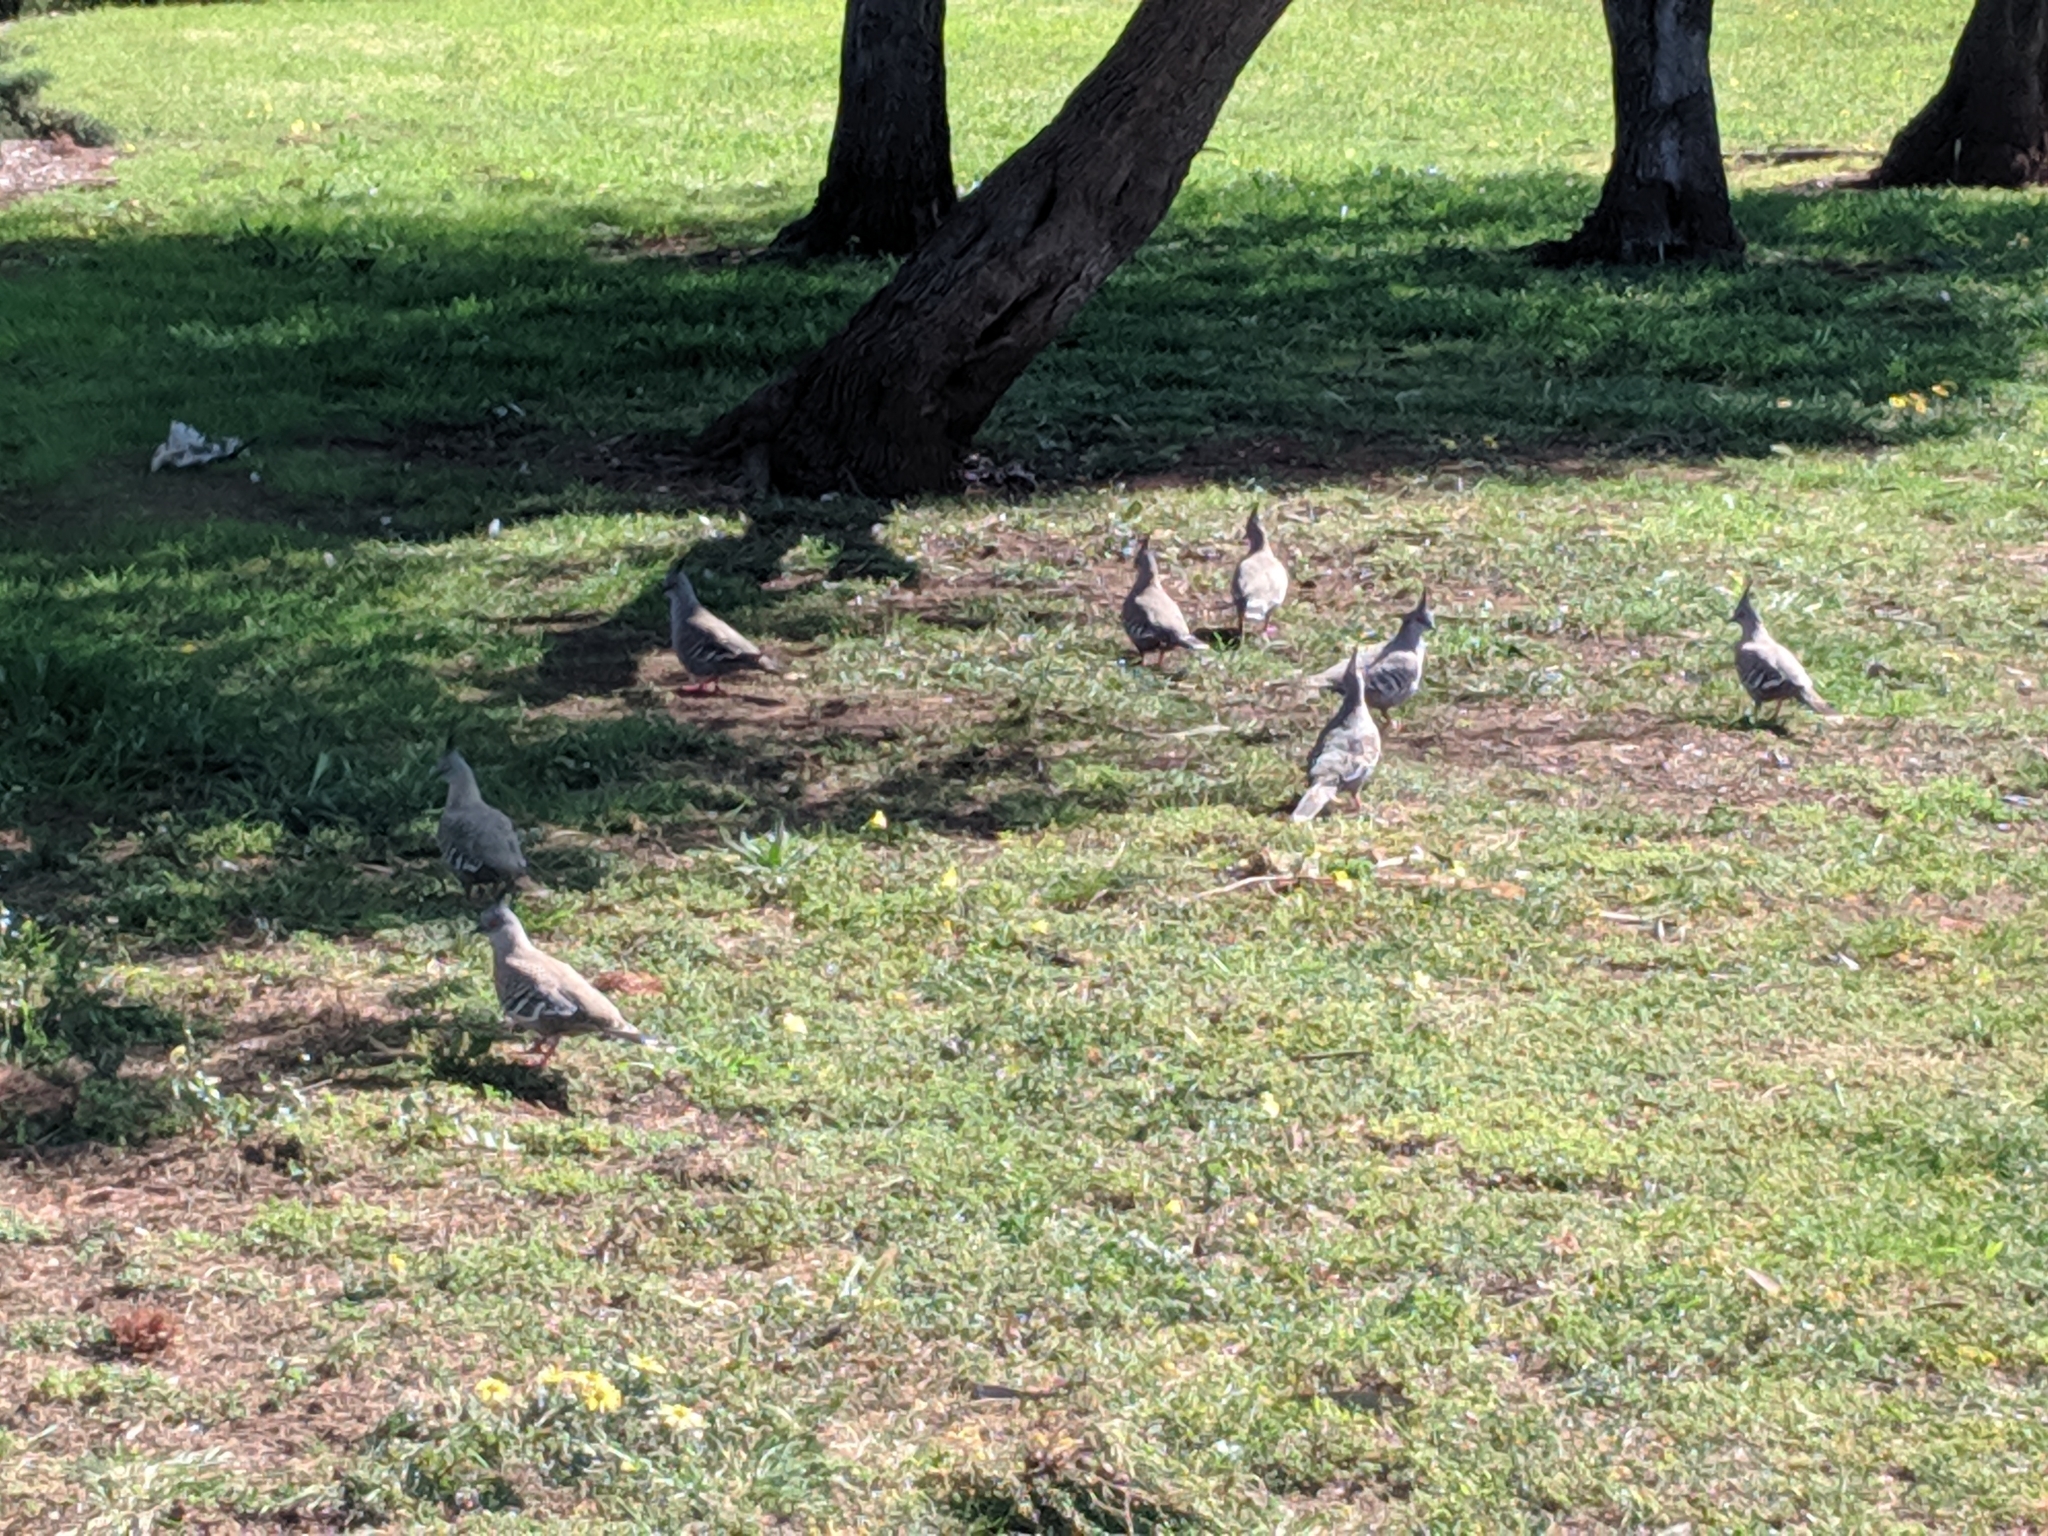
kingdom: Animalia
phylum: Chordata
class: Aves
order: Columbiformes
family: Columbidae
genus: Ocyphaps
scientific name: Ocyphaps lophotes
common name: Crested pigeon
